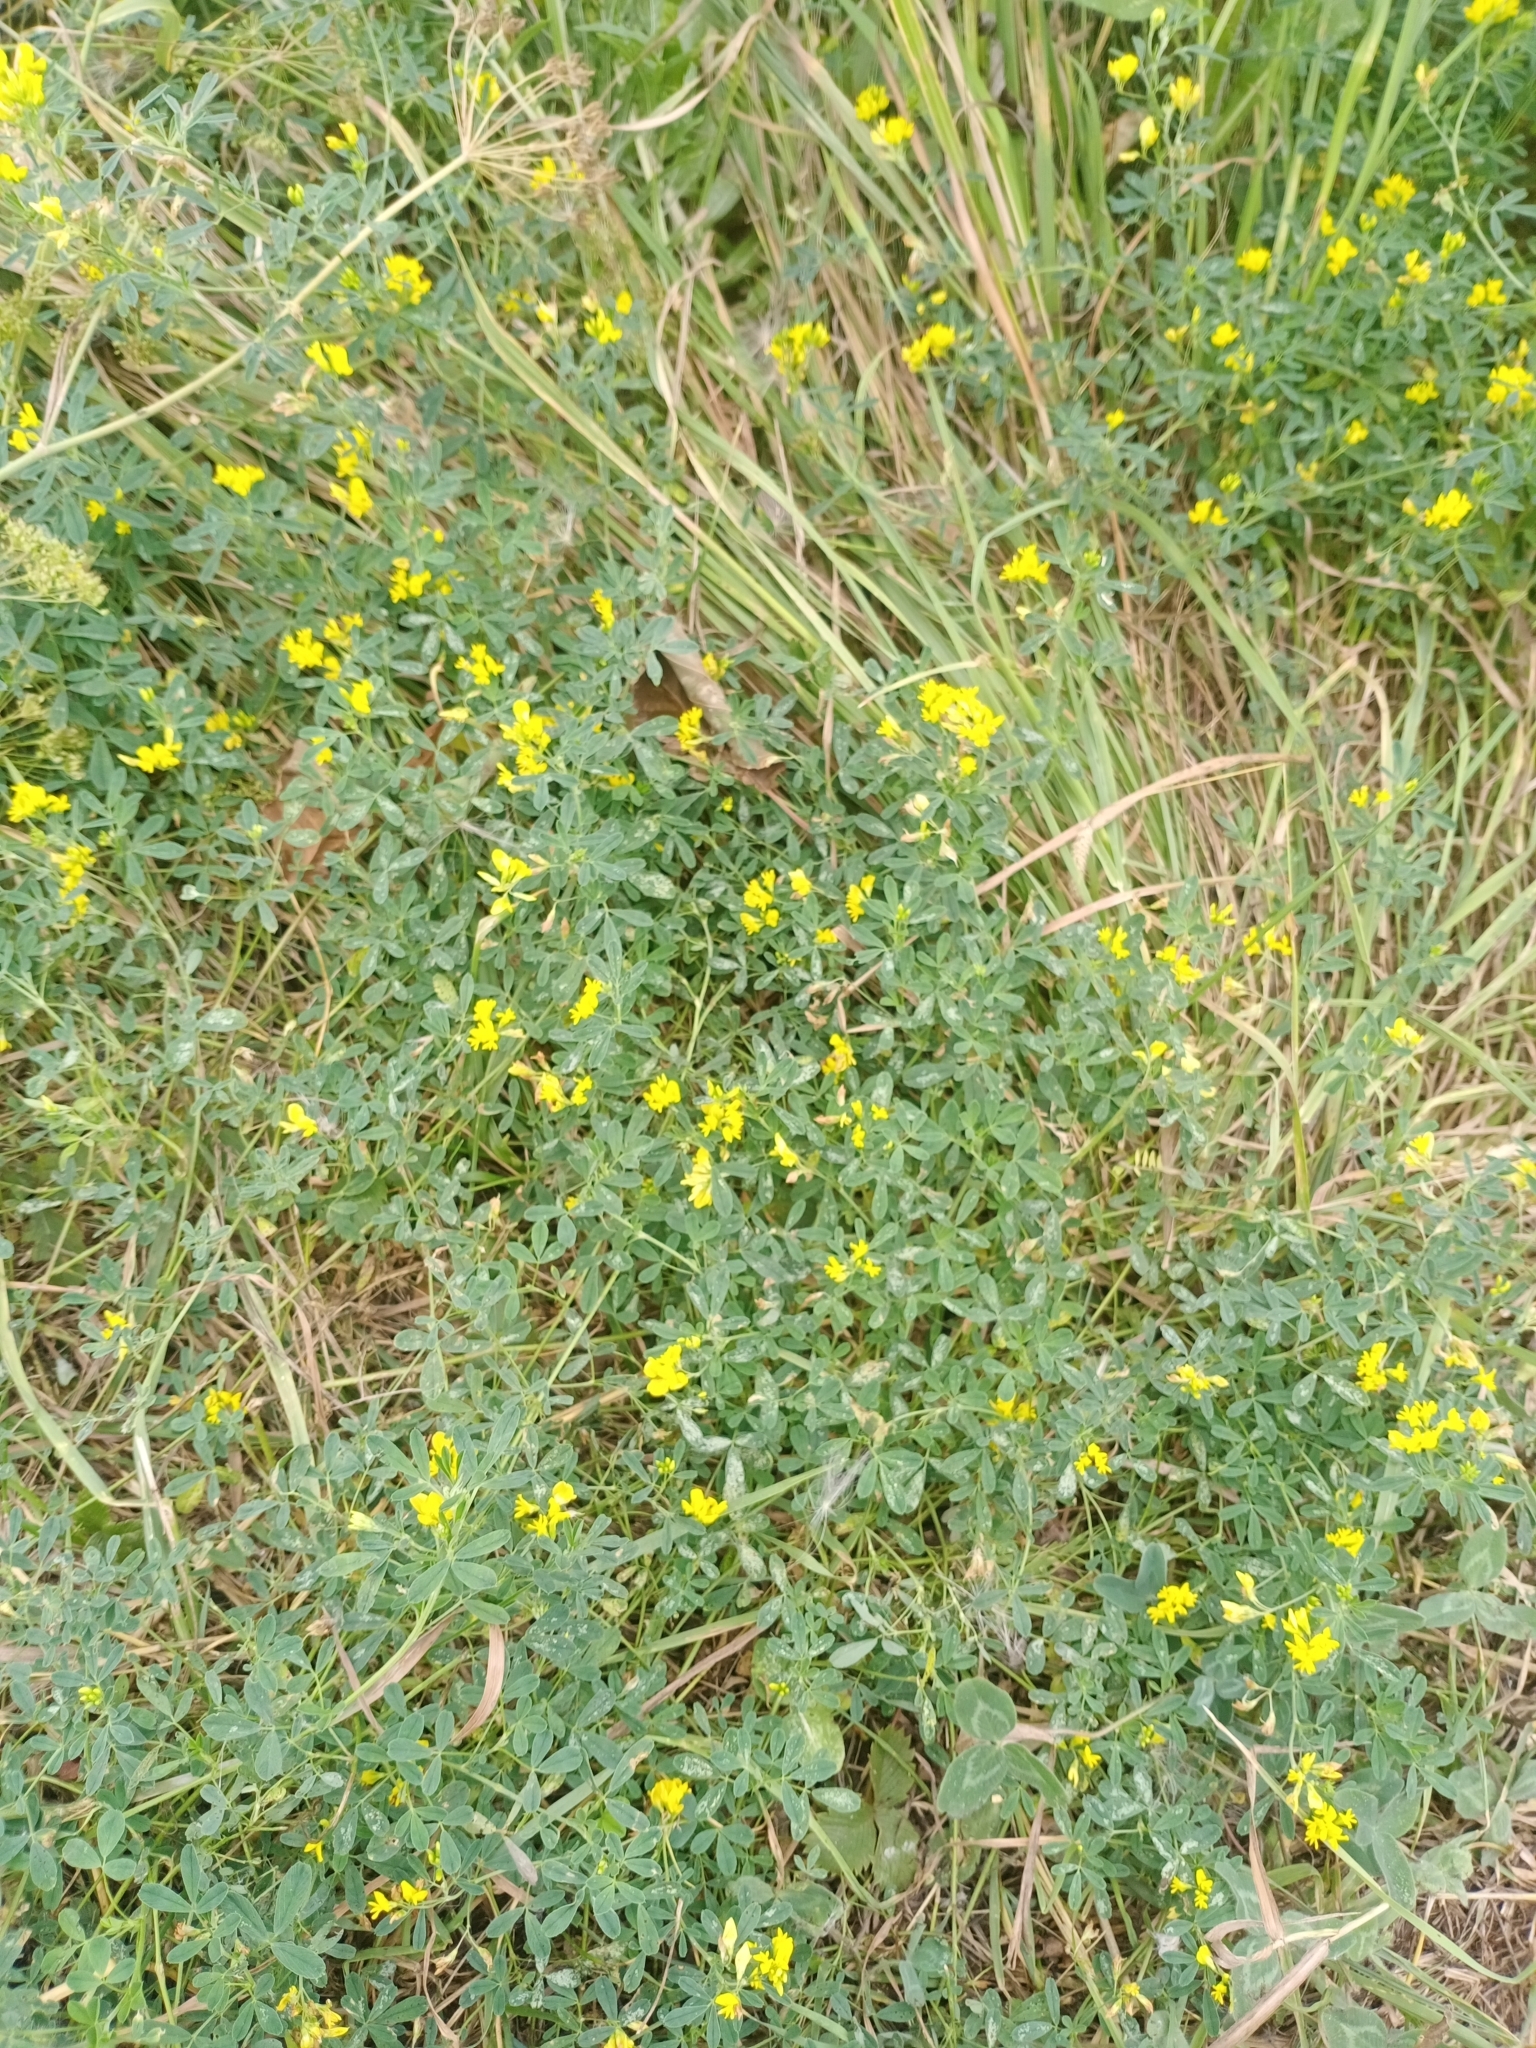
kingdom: Plantae
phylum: Tracheophyta
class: Magnoliopsida
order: Fabales
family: Fabaceae
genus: Medicago
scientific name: Medicago falcata
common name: Sickle medick
